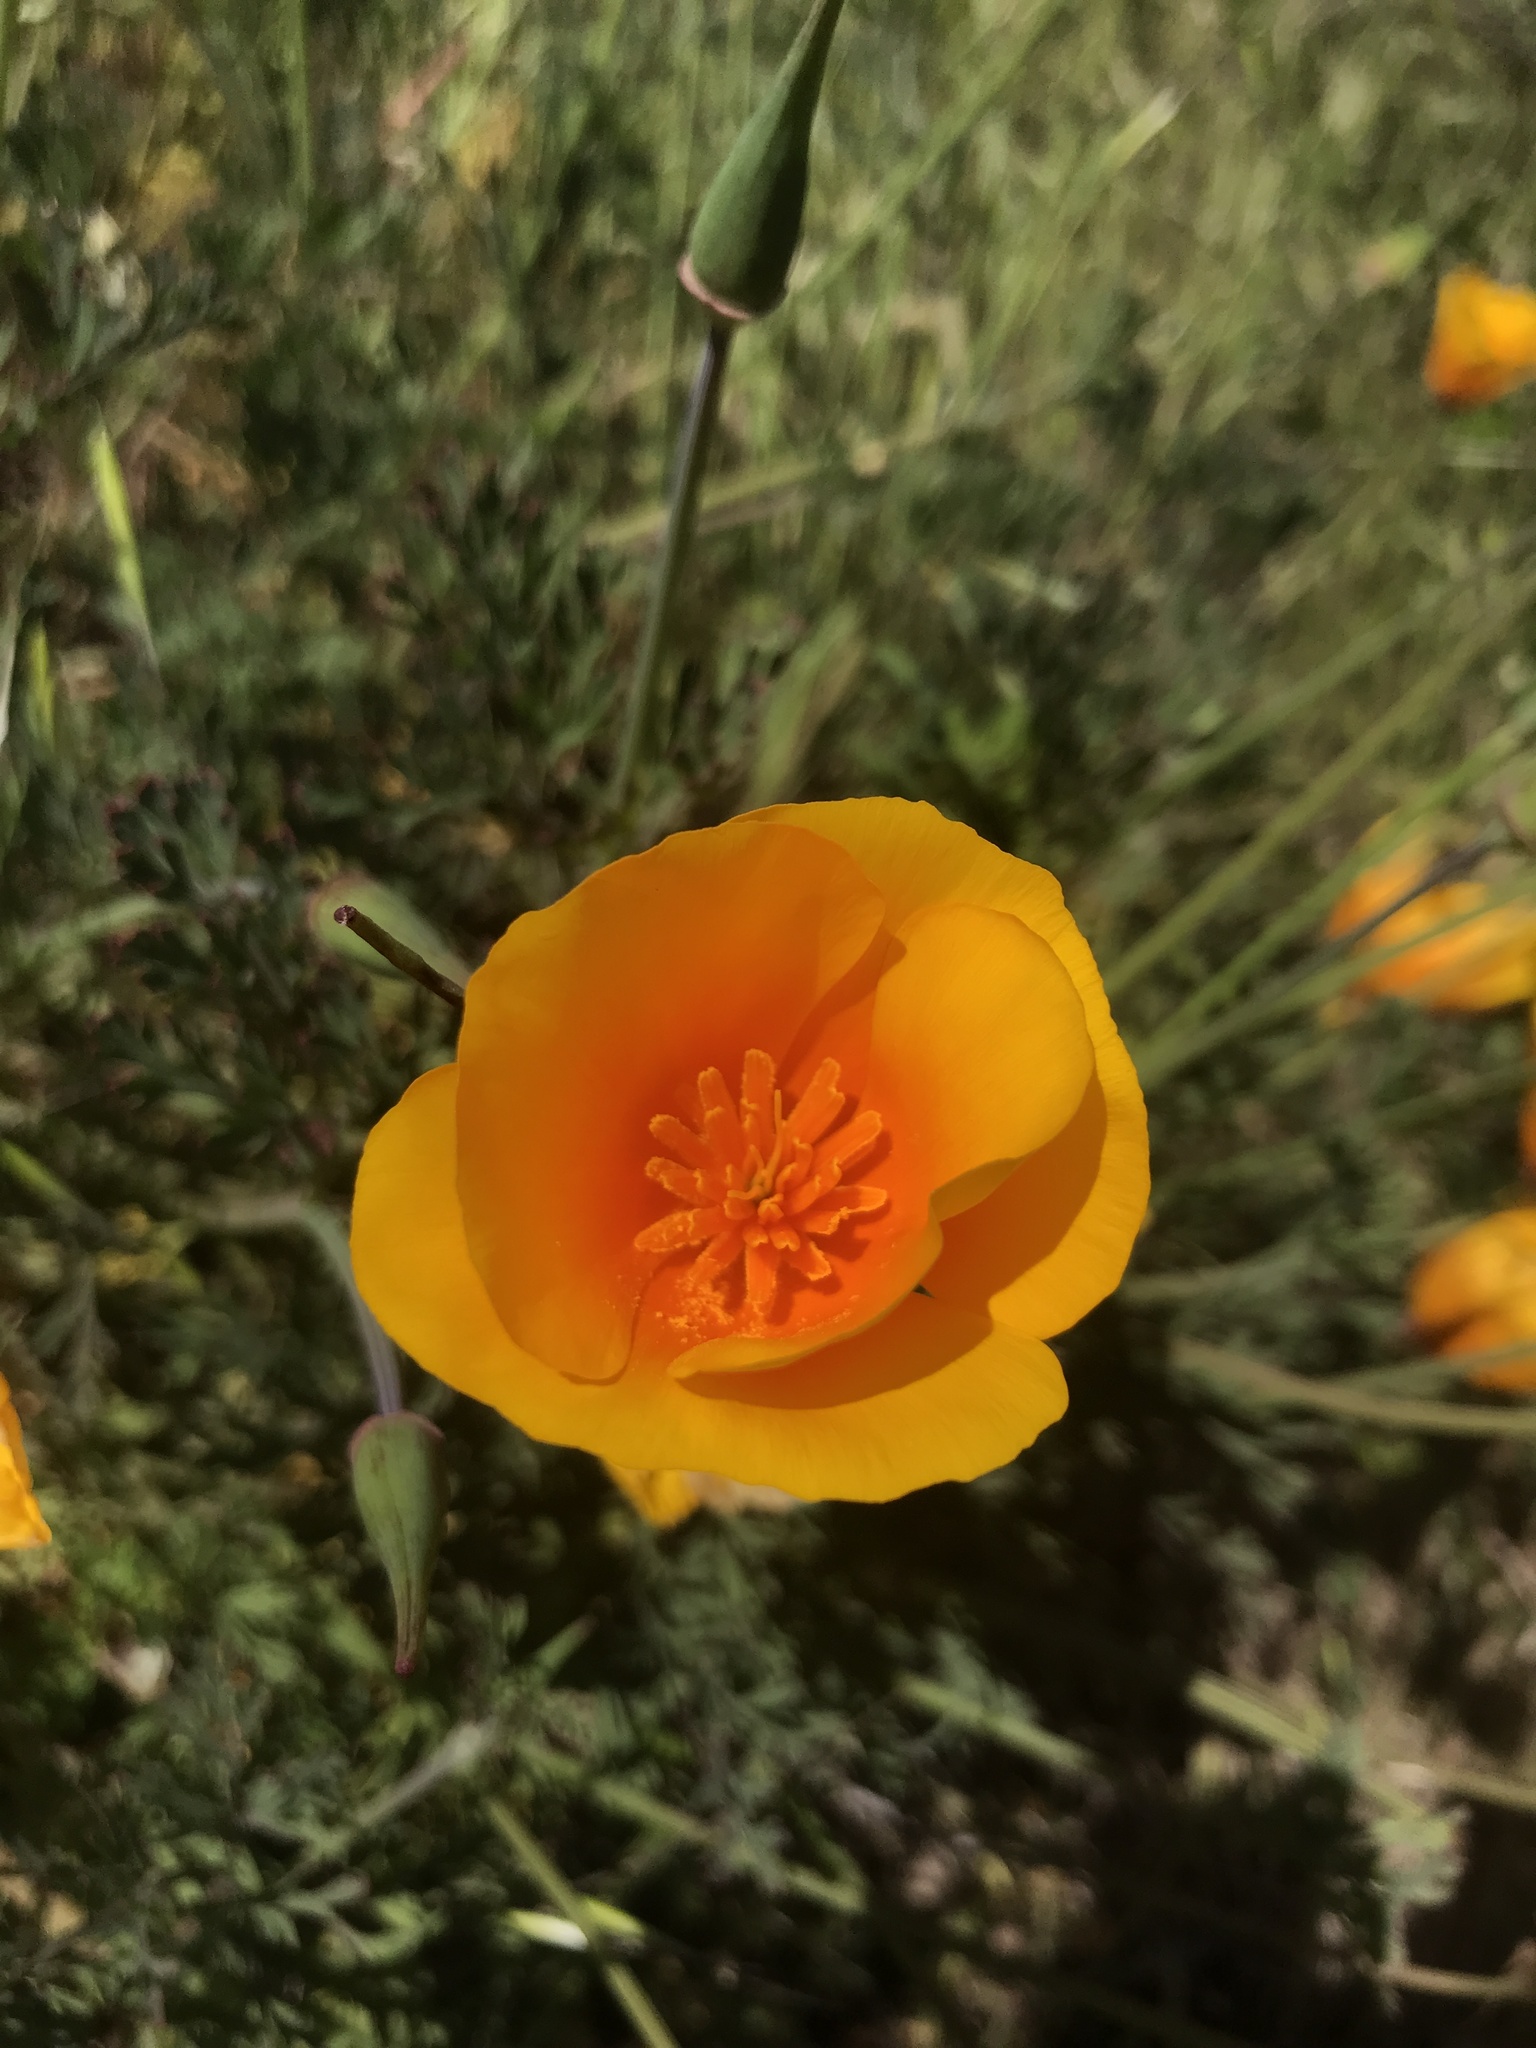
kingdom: Plantae
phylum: Tracheophyta
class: Magnoliopsida
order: Ranunculales
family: Papaveraceae
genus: Eschscholzia
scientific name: Eschscholzia californica
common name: California poppy
